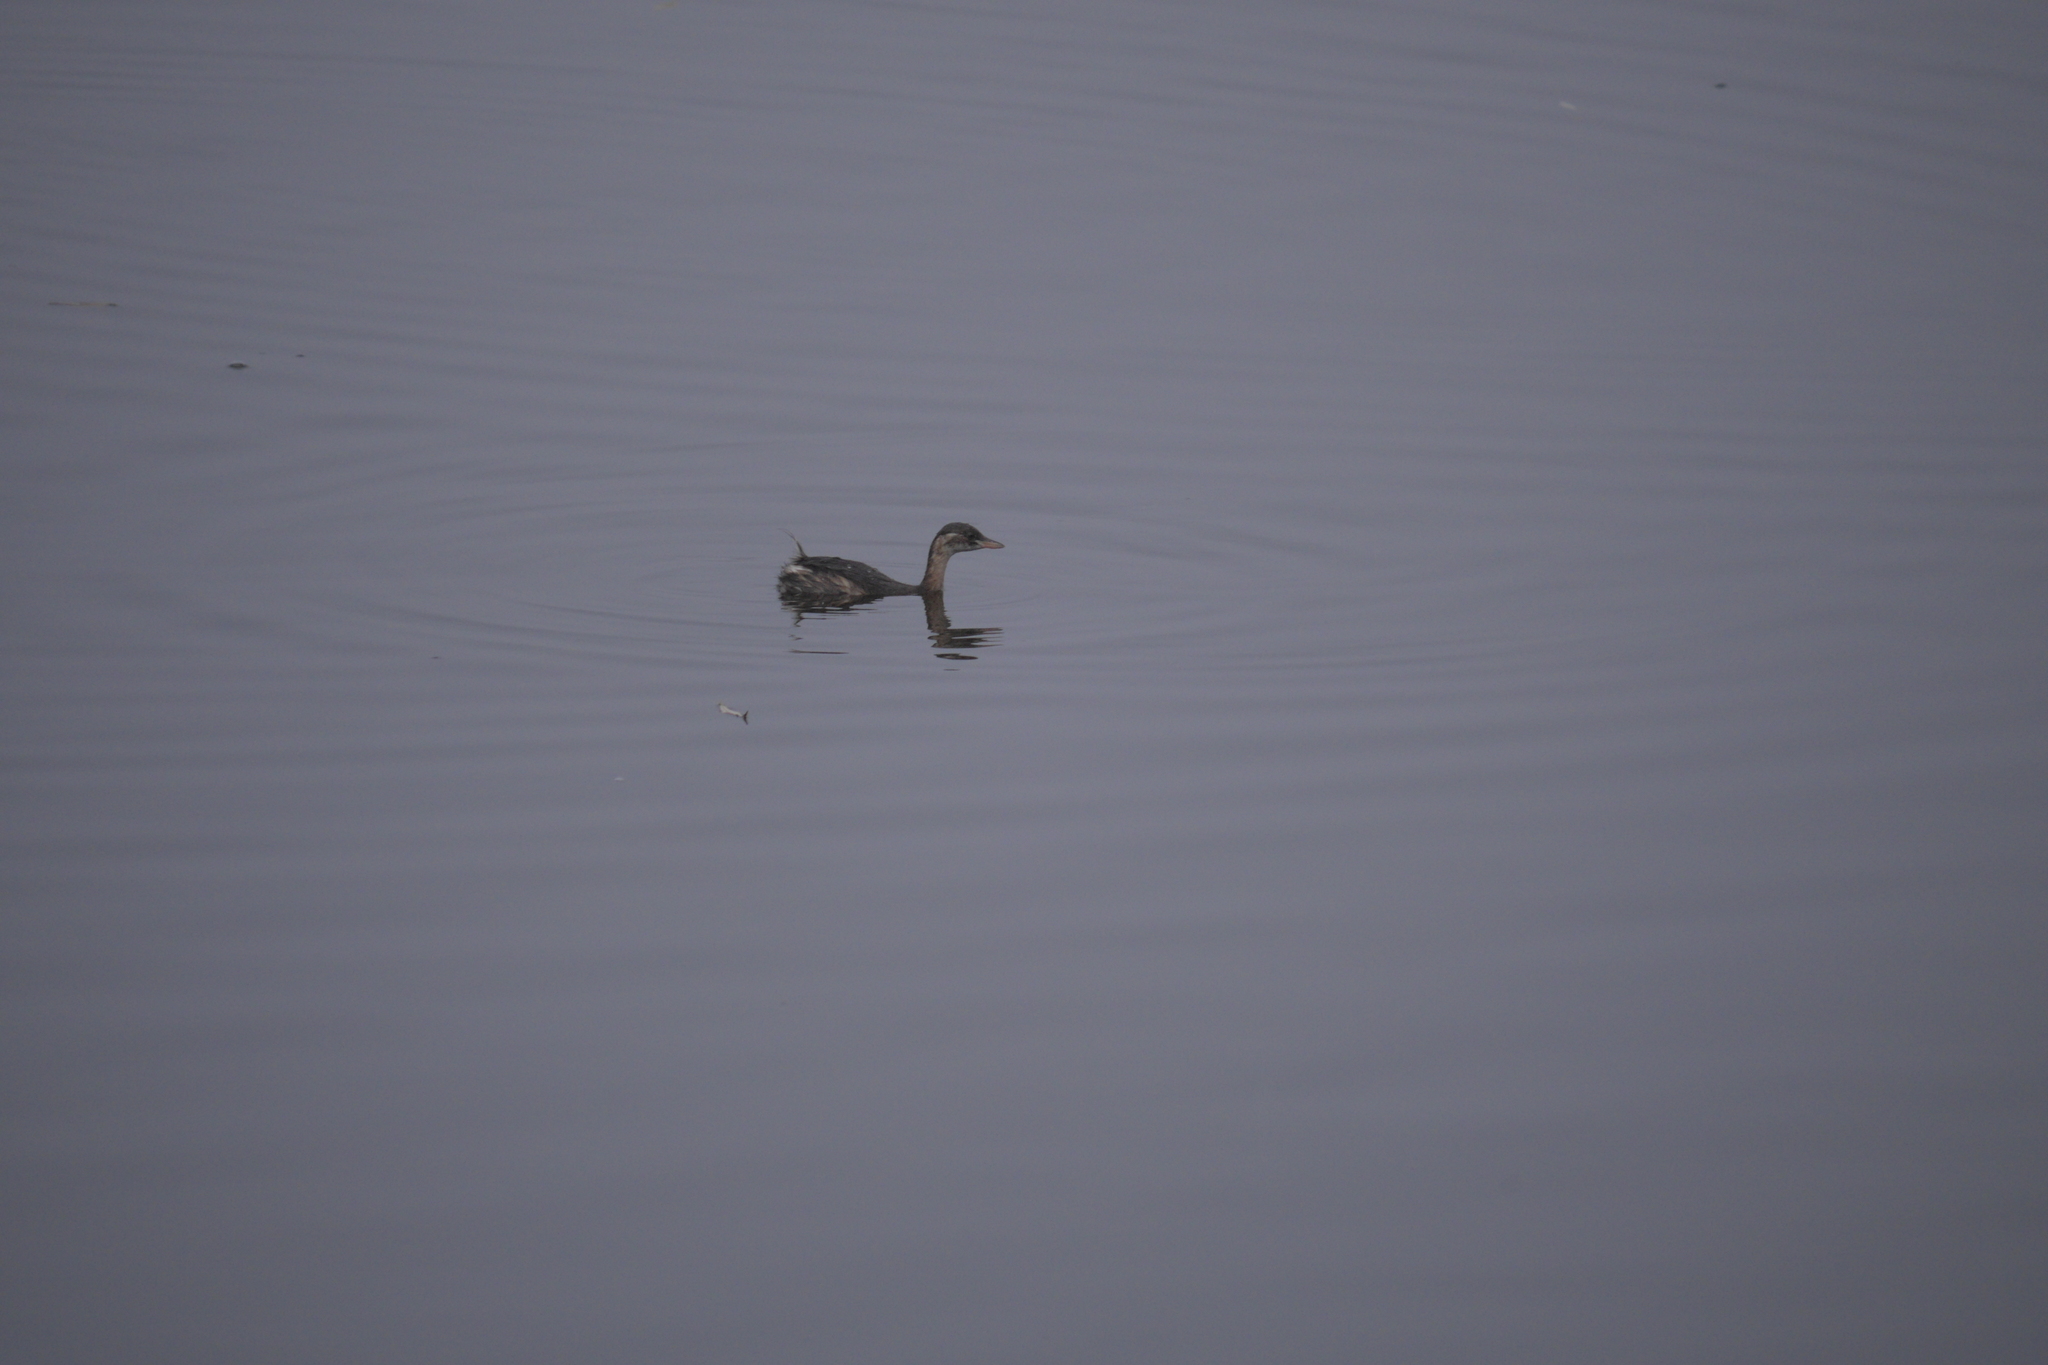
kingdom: Animalia
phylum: Chordata
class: Aves
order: Podicipediformes
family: Podicipedidae
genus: Tachybaptus
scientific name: Tachybaptus ruficollis
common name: Little grebe
